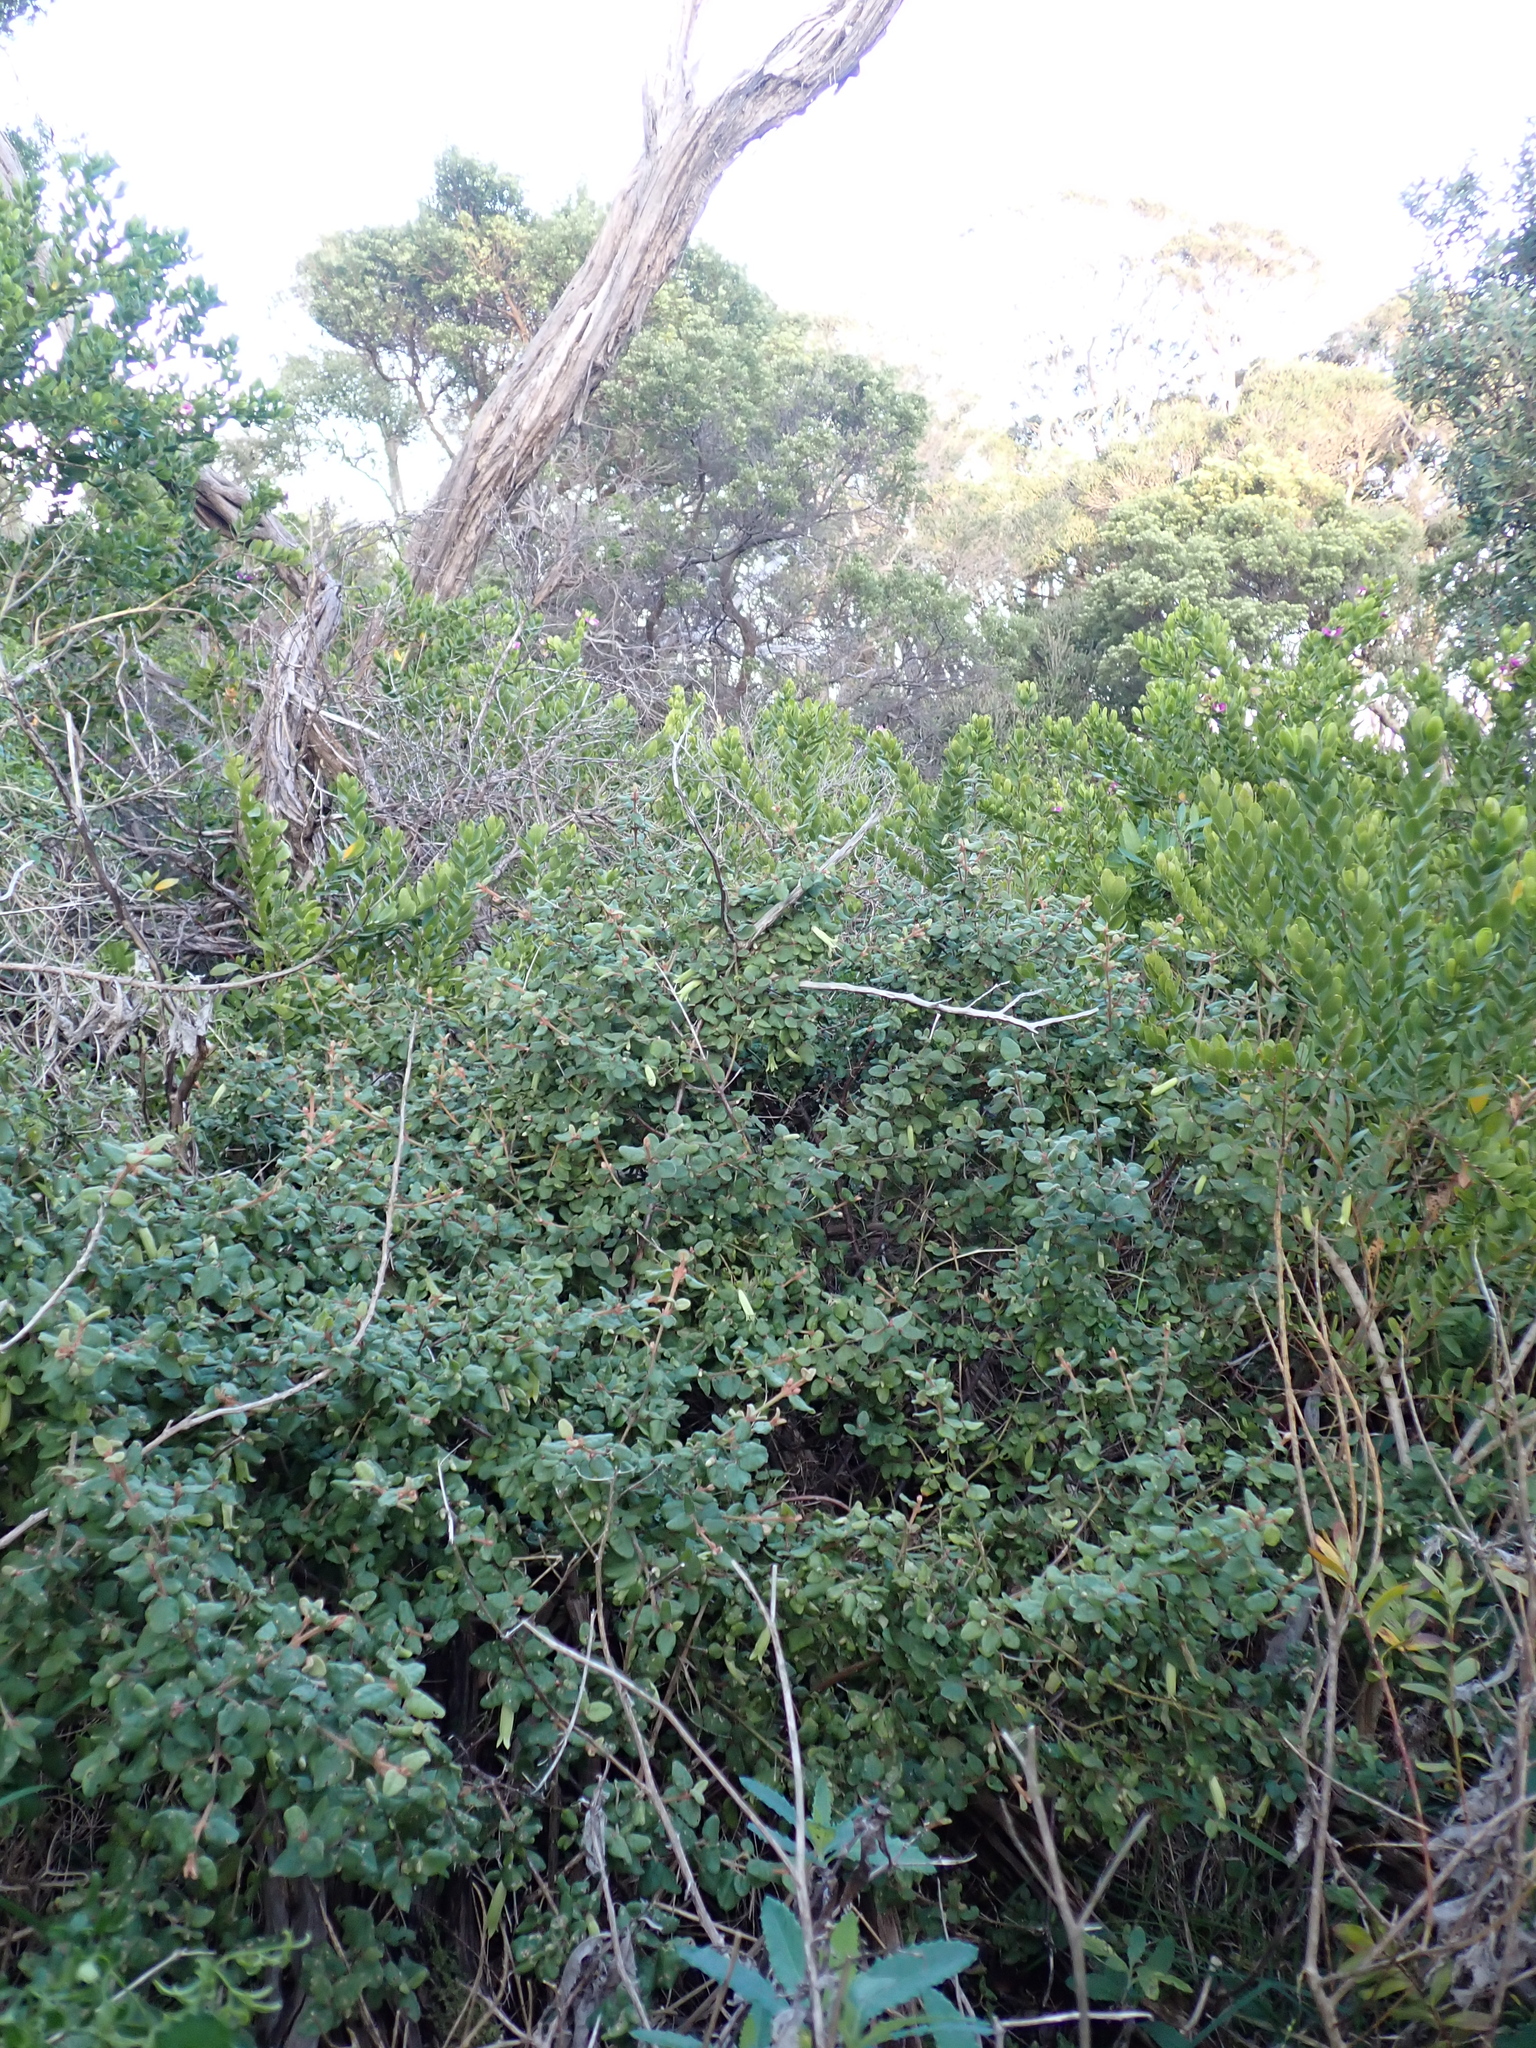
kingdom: Plantae
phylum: Tracheophyta
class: Magnoliopsida
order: Sapindales
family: Rutaceae
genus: Correa
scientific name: Correa reflexa
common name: Common correa
